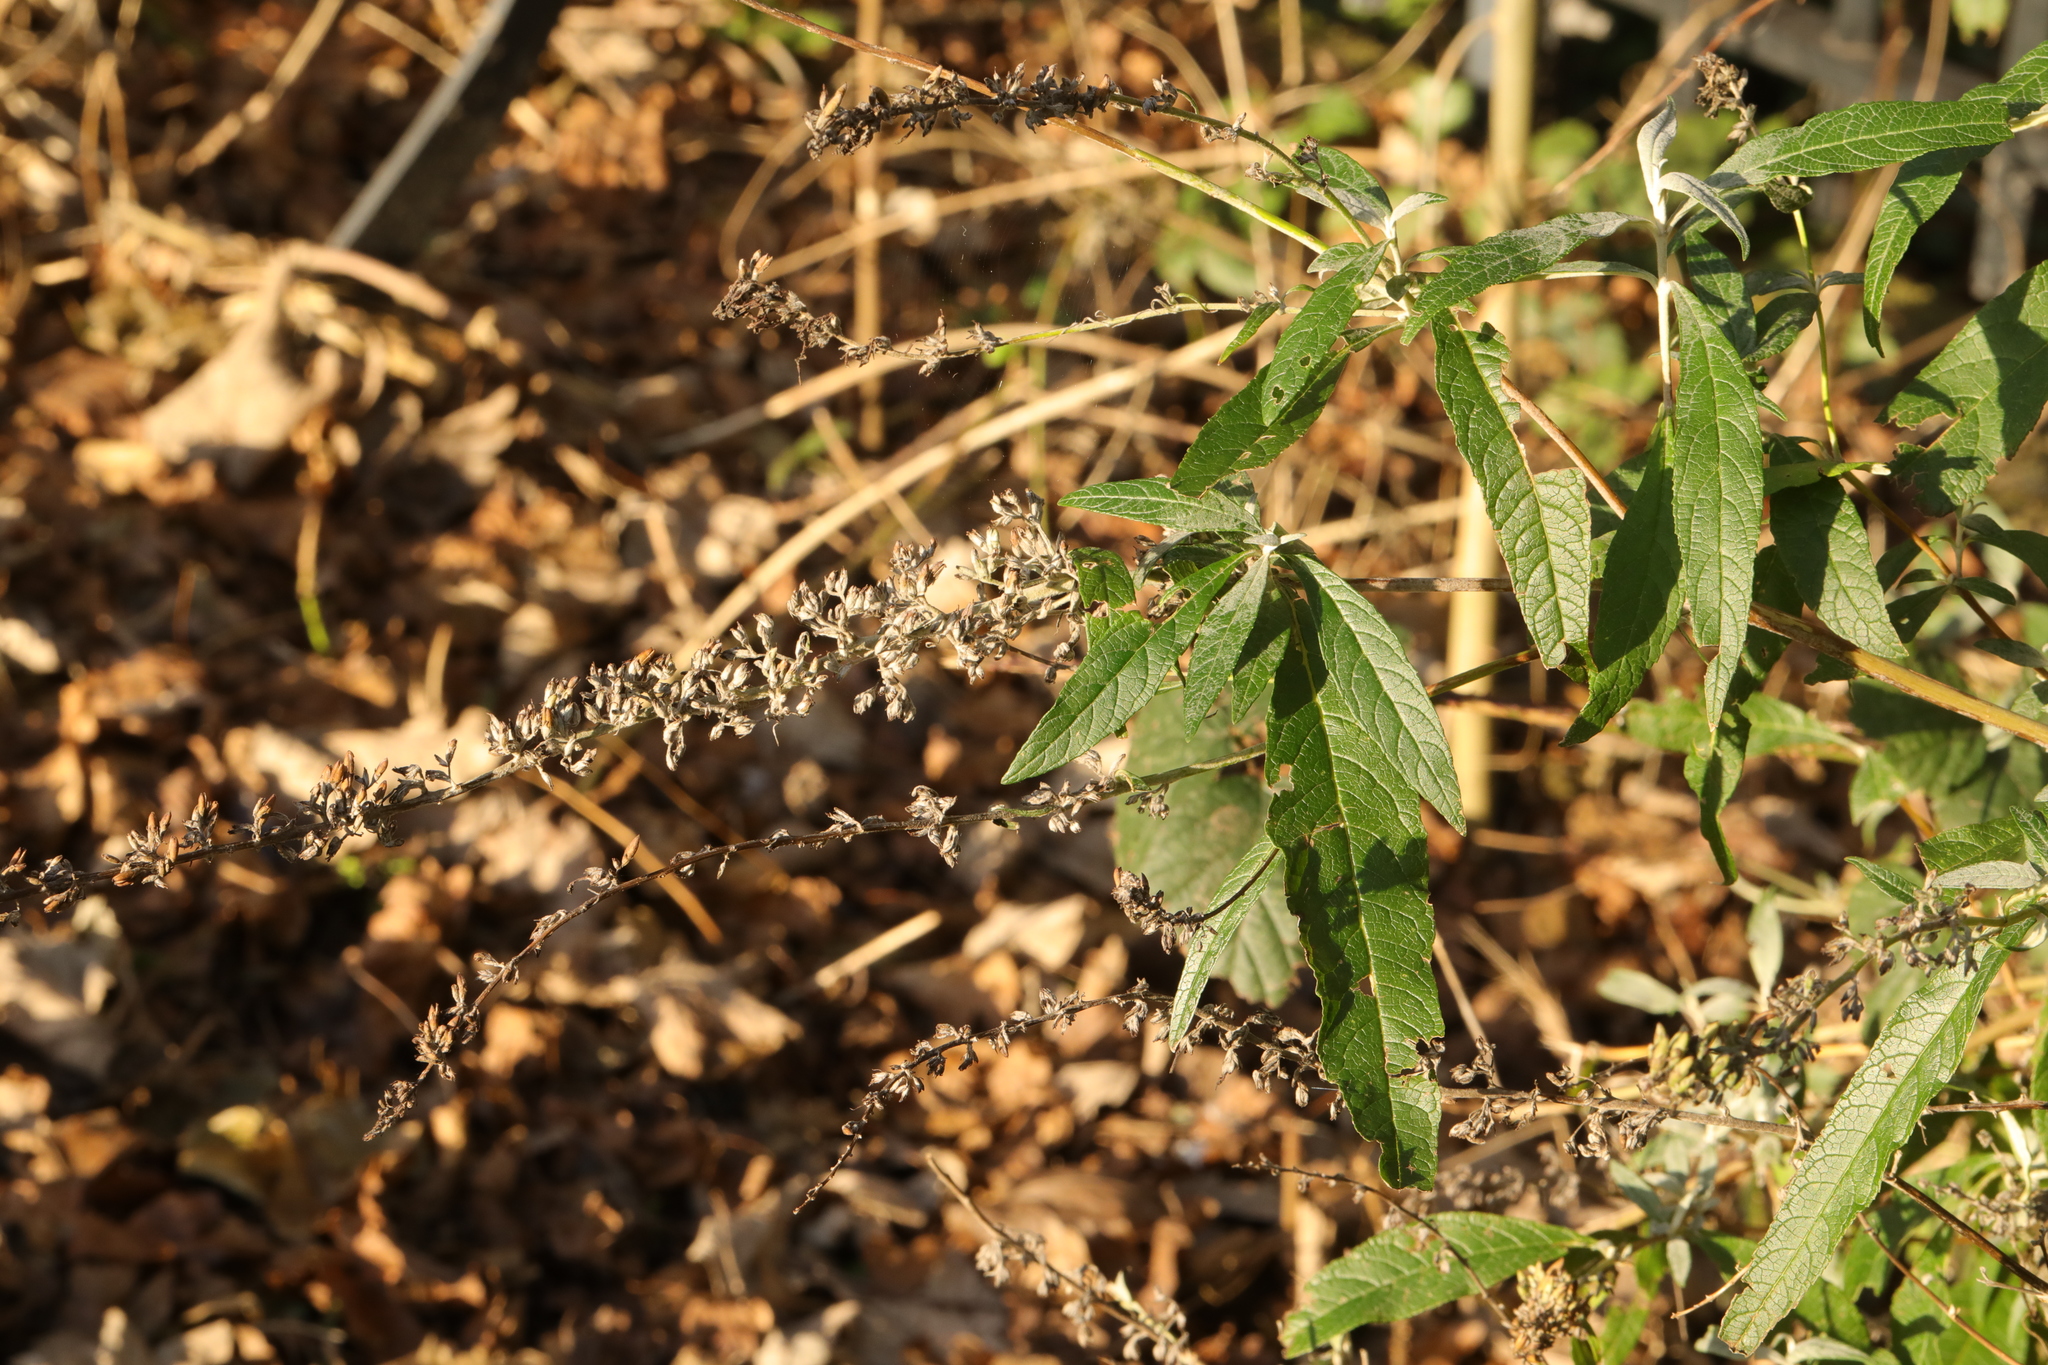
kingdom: Plantae
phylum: Tracheophyta
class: Magnoliopsida
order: Lamiales
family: Scrophulariaceae
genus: Buddleja
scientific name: Buddleja davidii
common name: Butterfly-bush
